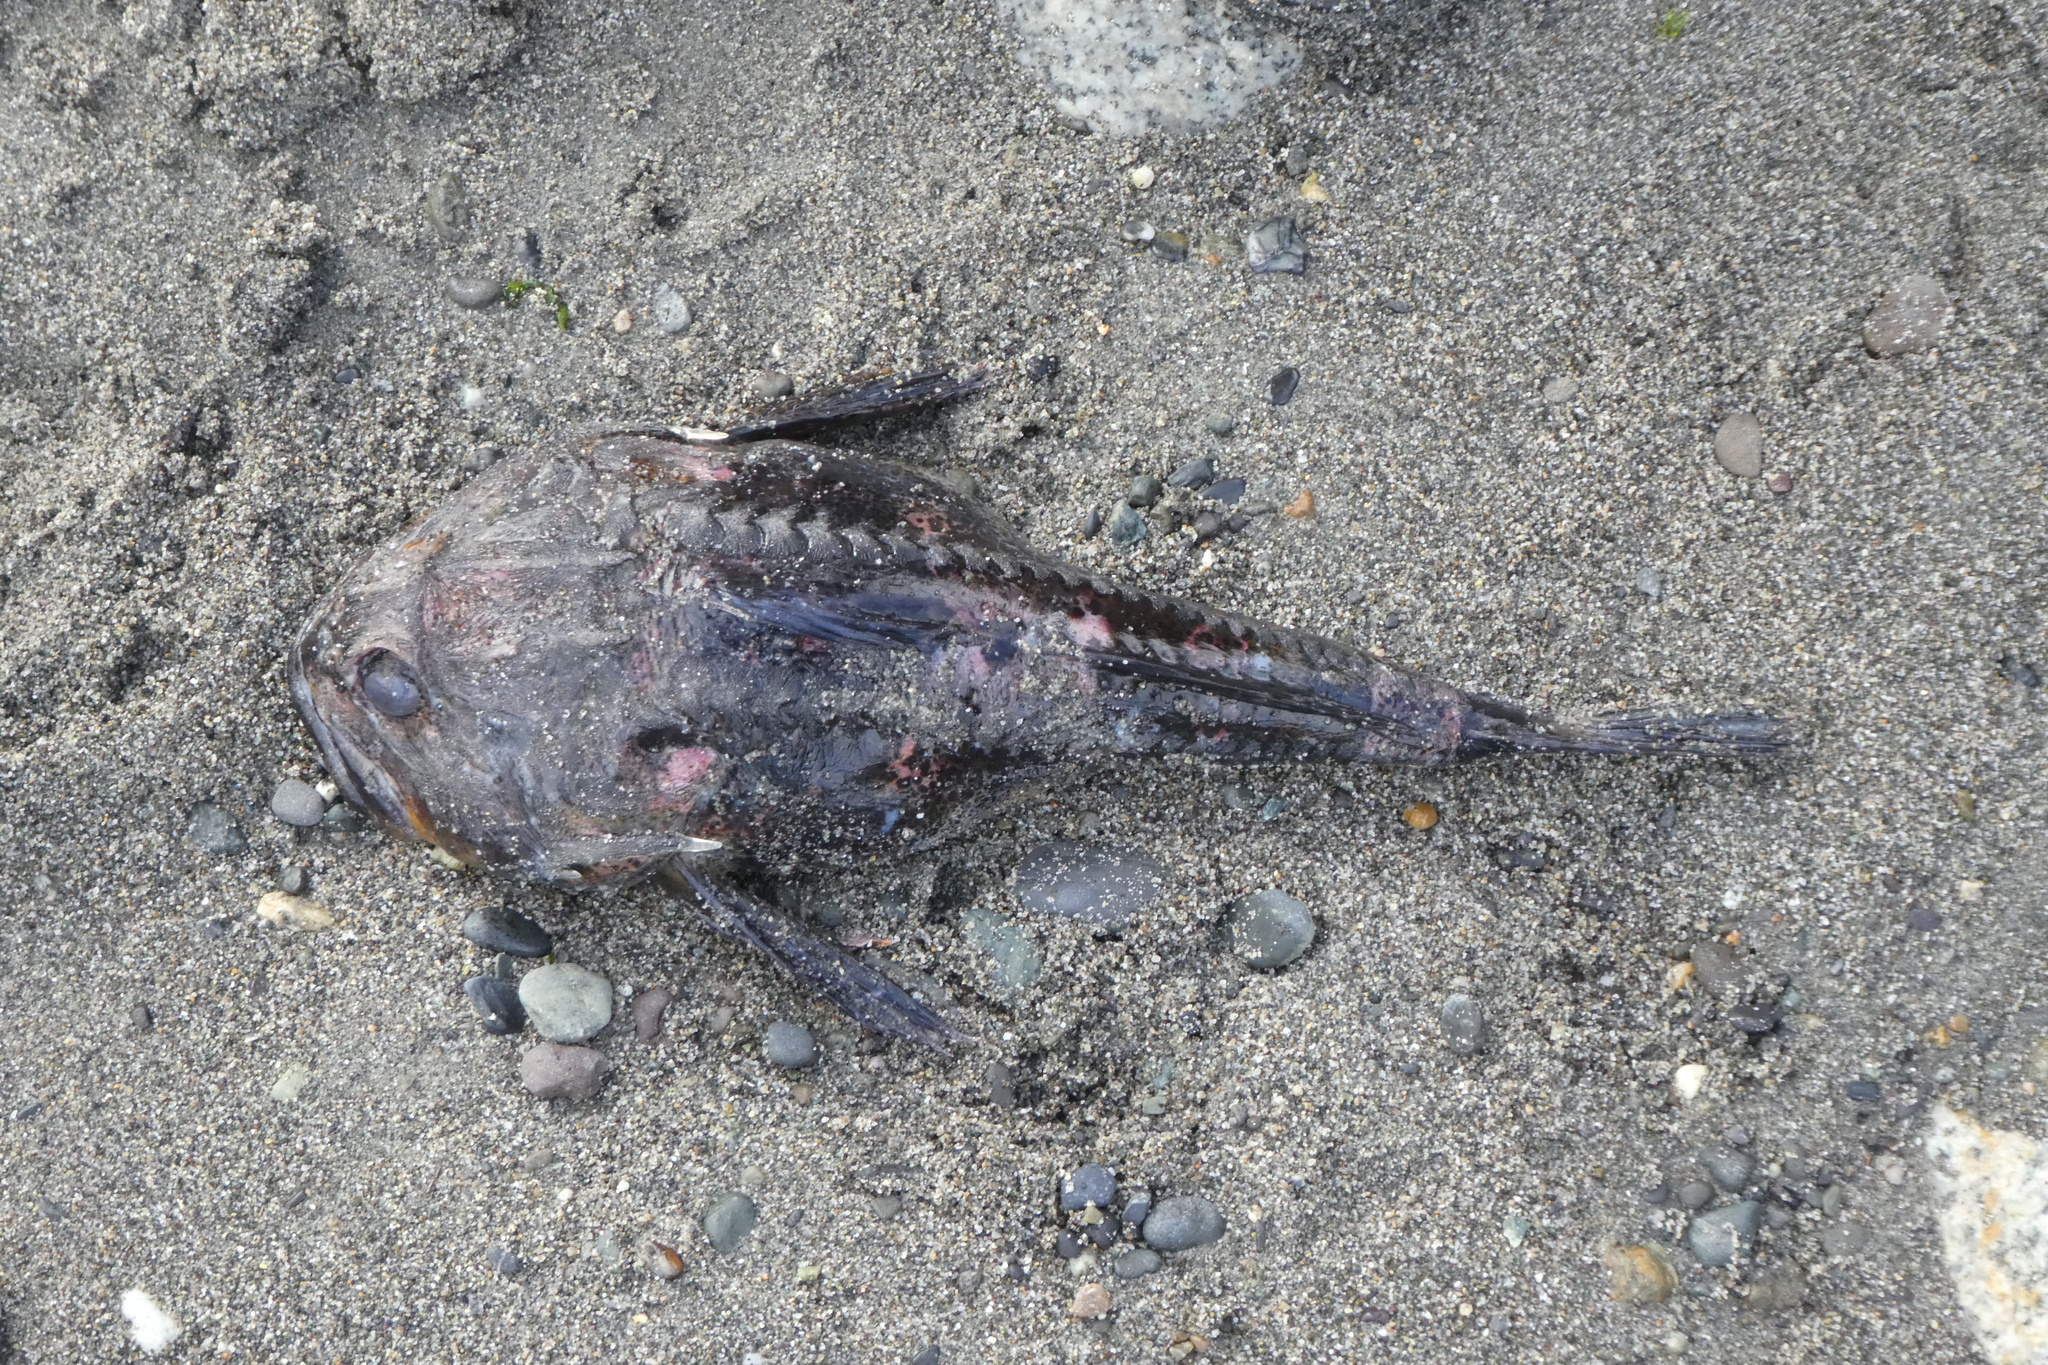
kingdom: Animalia
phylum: Chordata
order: Scorpaeniformes
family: Cottidae
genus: Enophrys
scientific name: Enophrys bison
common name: Buffalo sculpin
